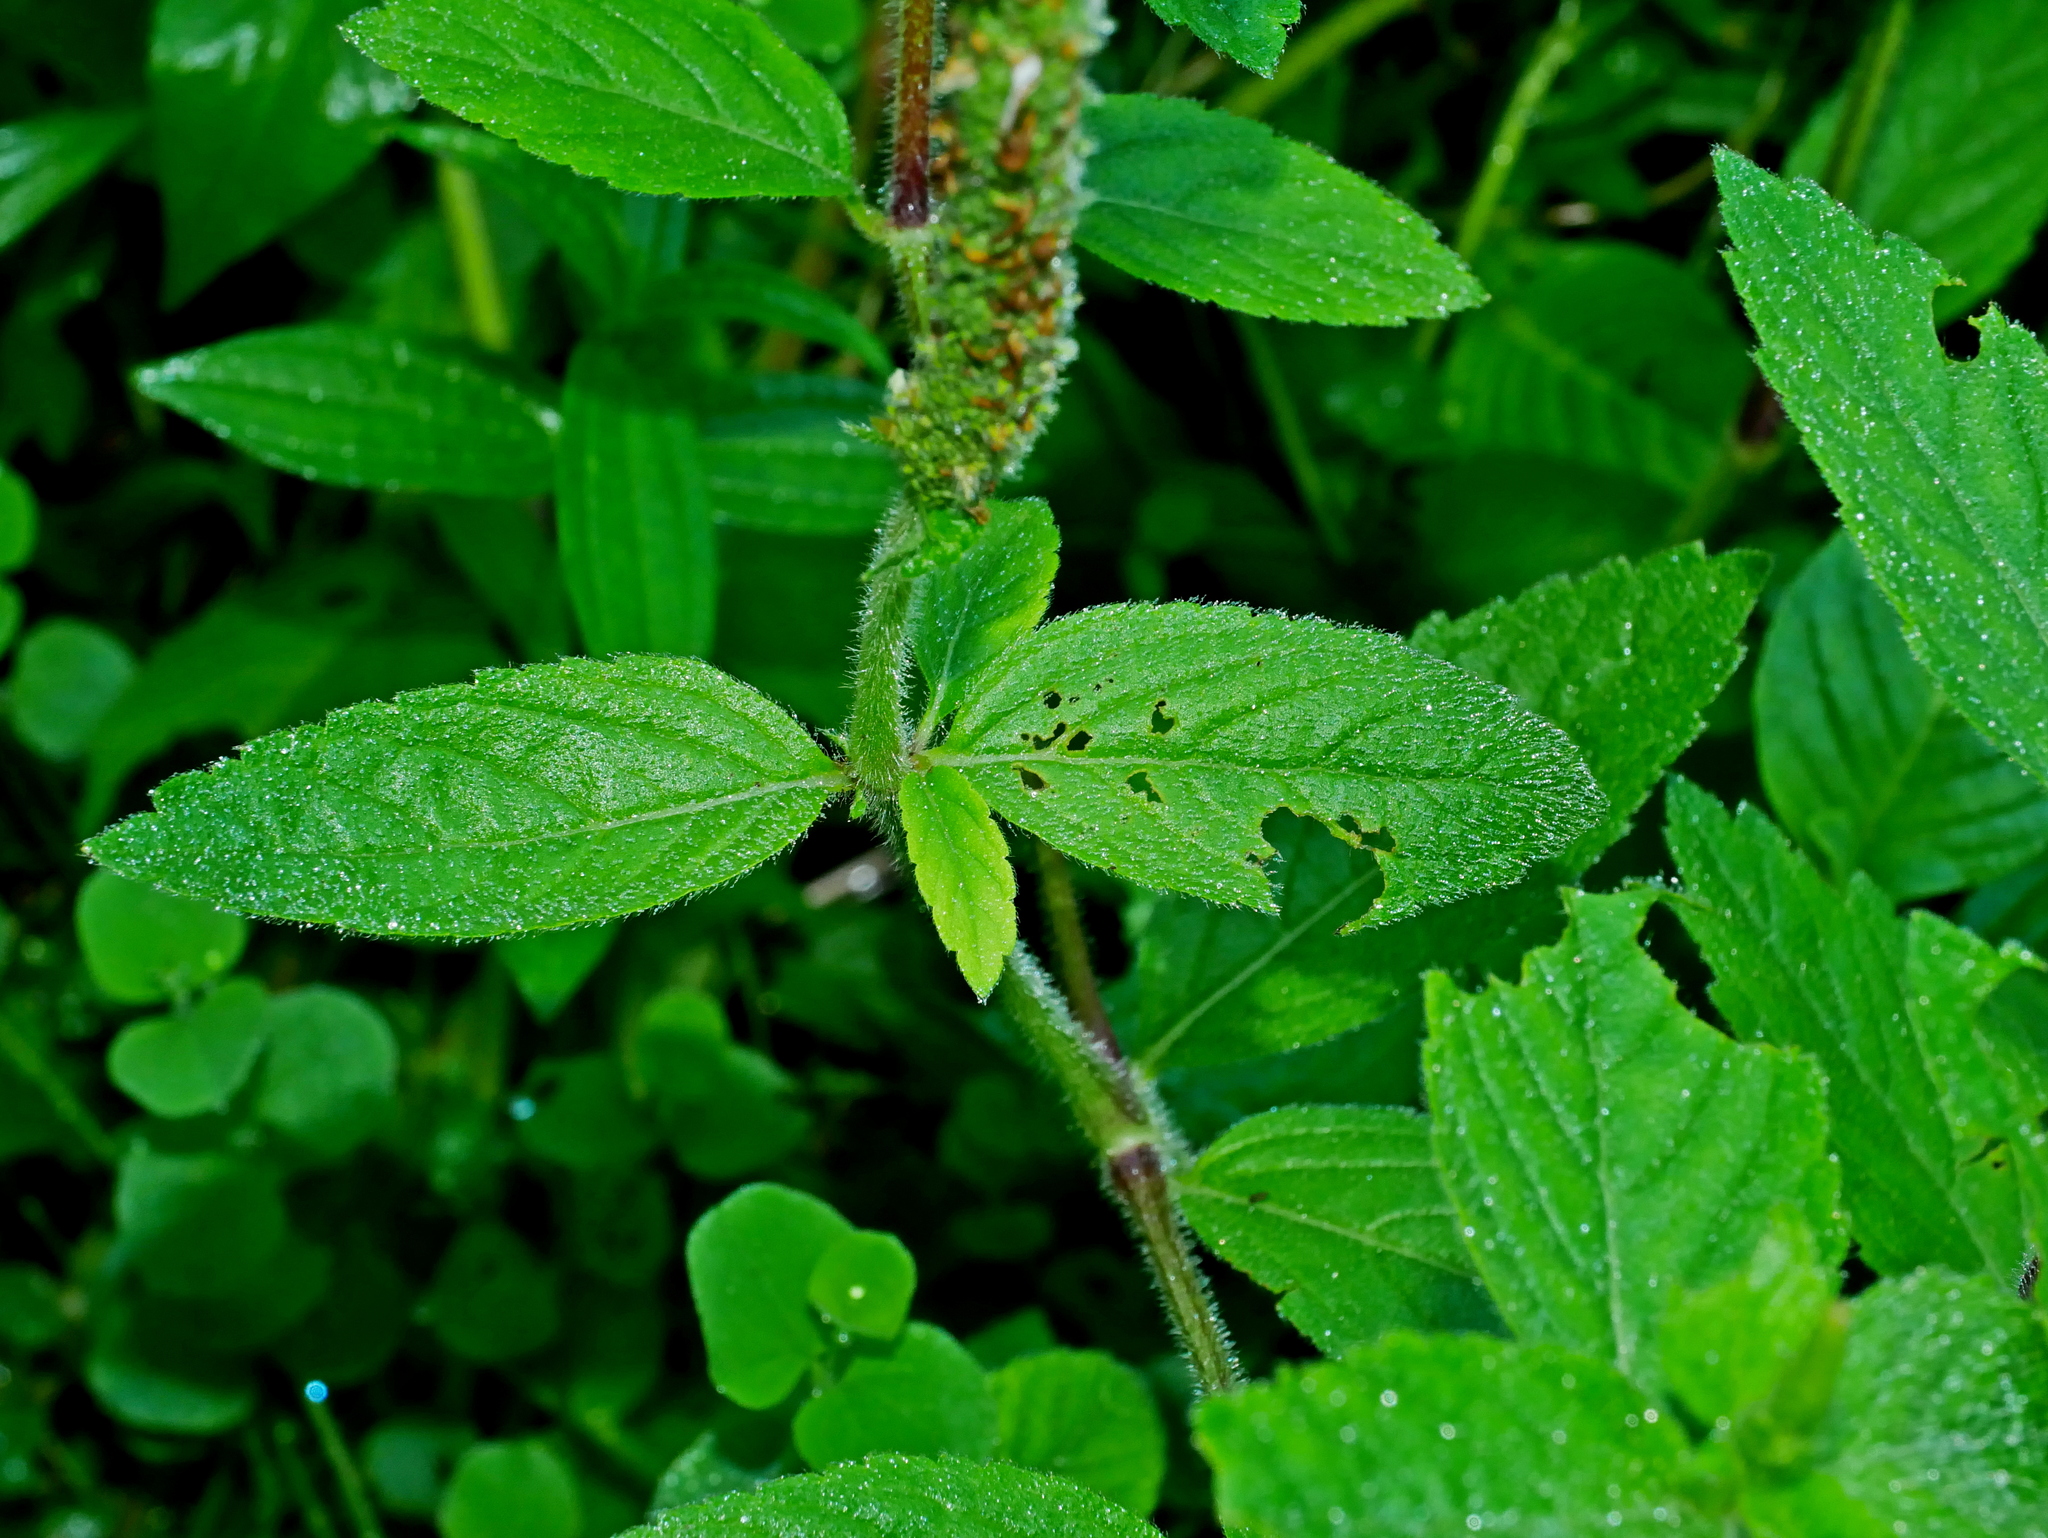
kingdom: Plantae
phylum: Tracheophyta
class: Magnoliopsida
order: Lamiales
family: Lamiaceae
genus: Pogostemon
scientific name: Pogostemon auricularius
